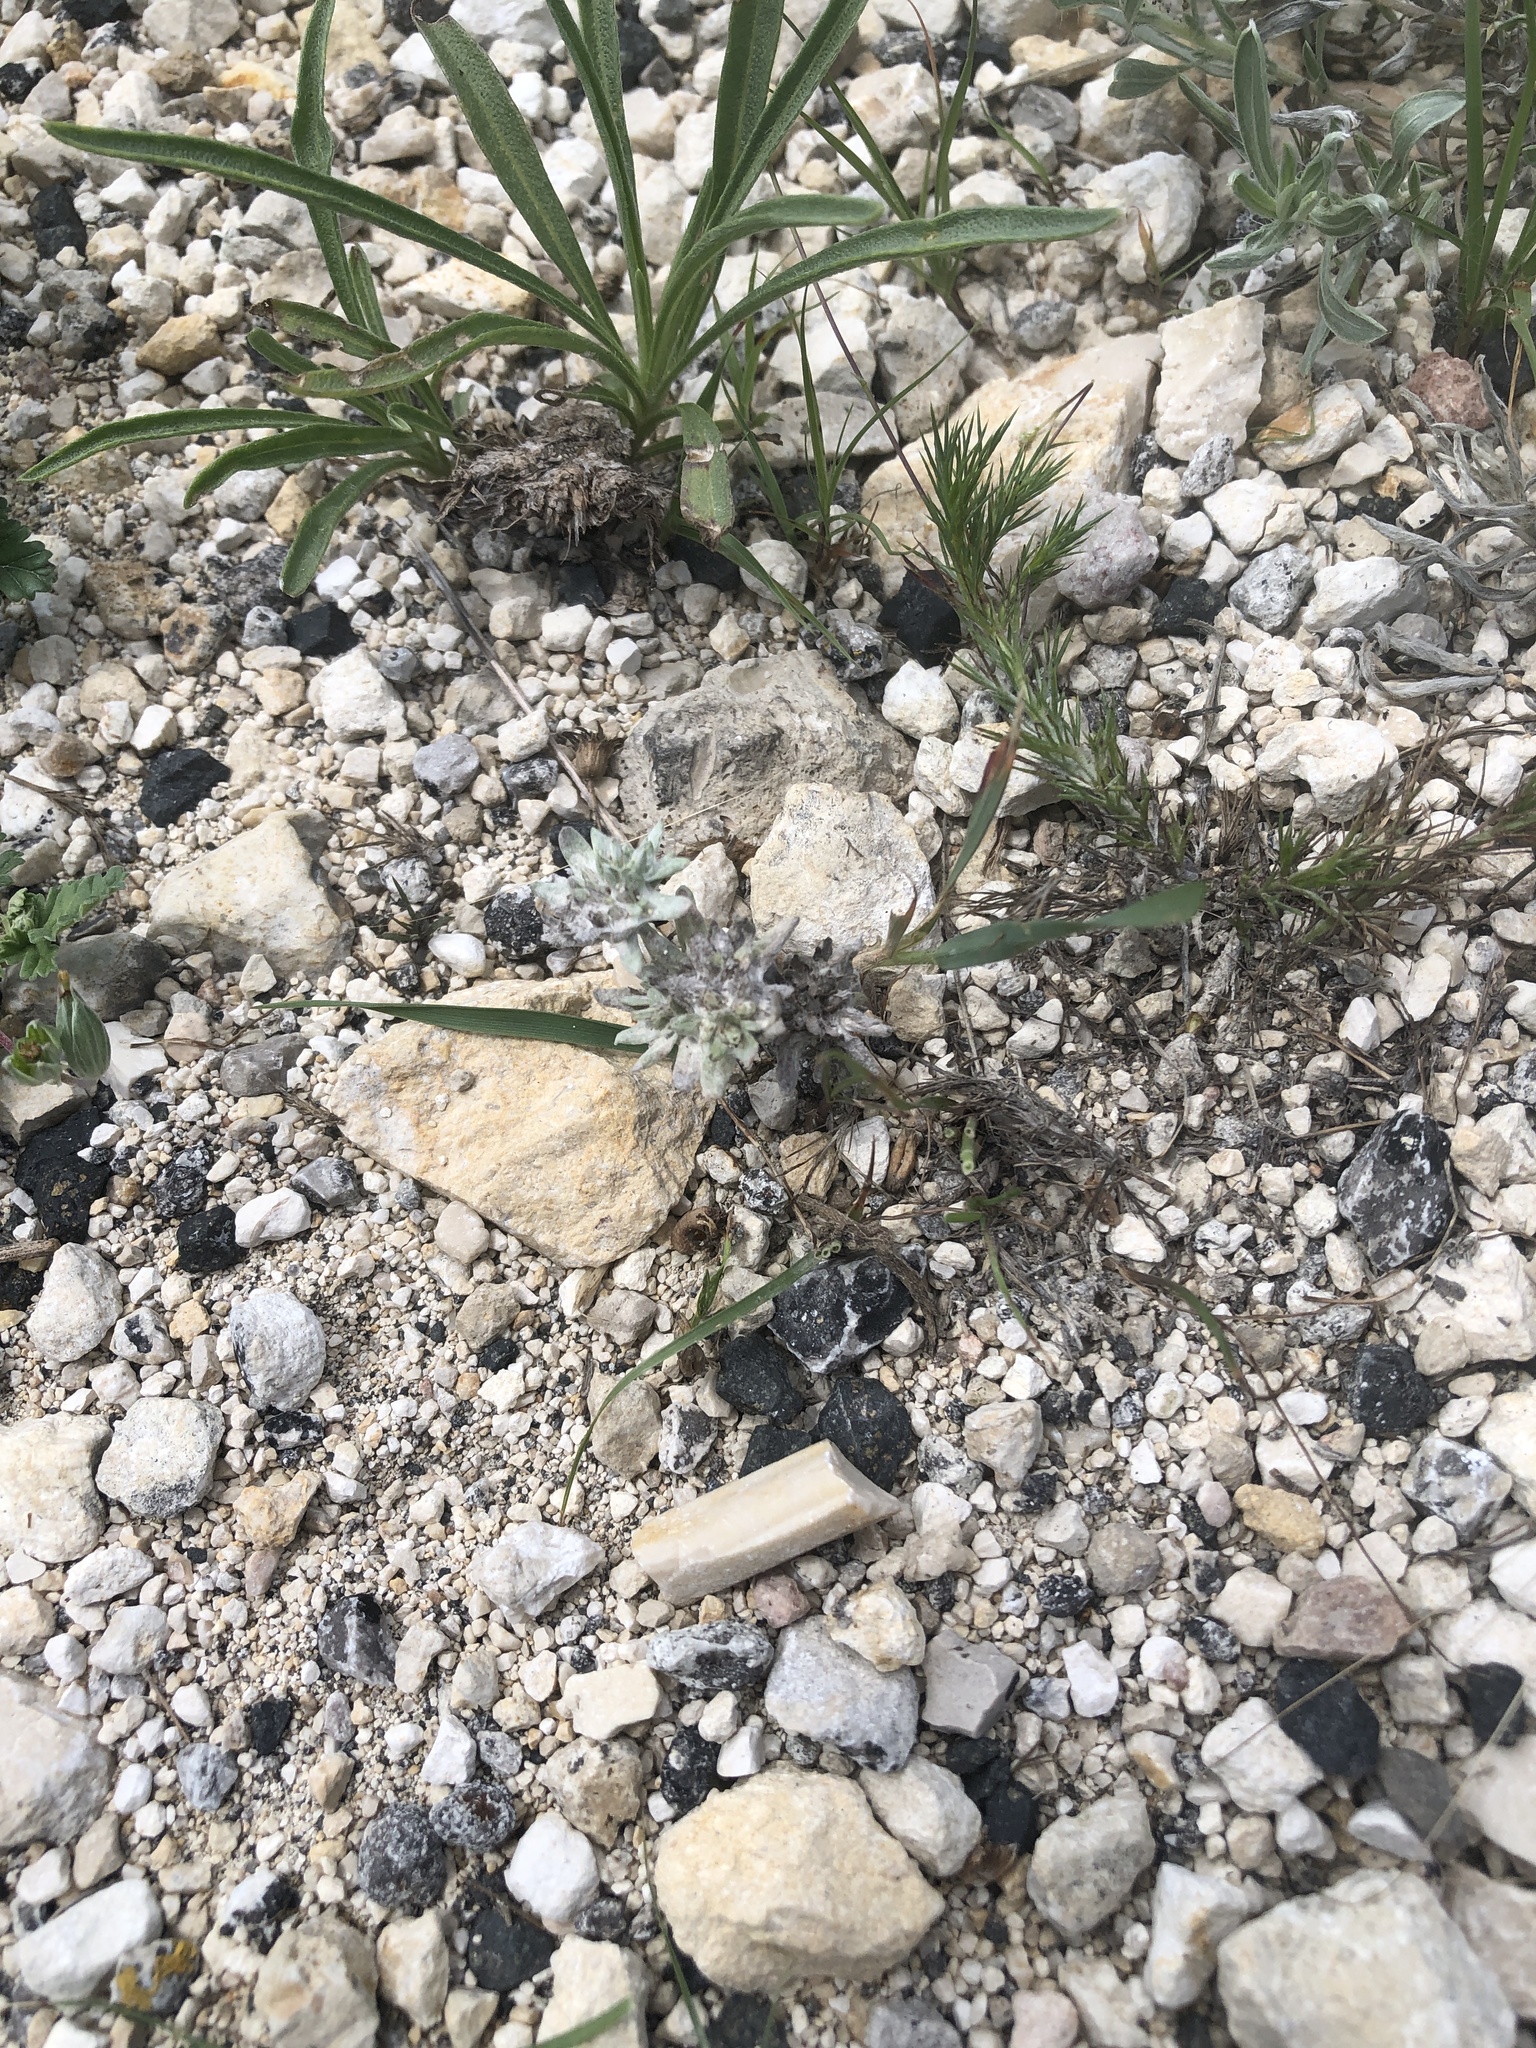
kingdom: Plantae
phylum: Tracheophyta
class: Magnoliopsida
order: Asterales
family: Asteraceae
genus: Diaperia
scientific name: Diaperia prolifera
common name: Big-head rabbit-tobacco
